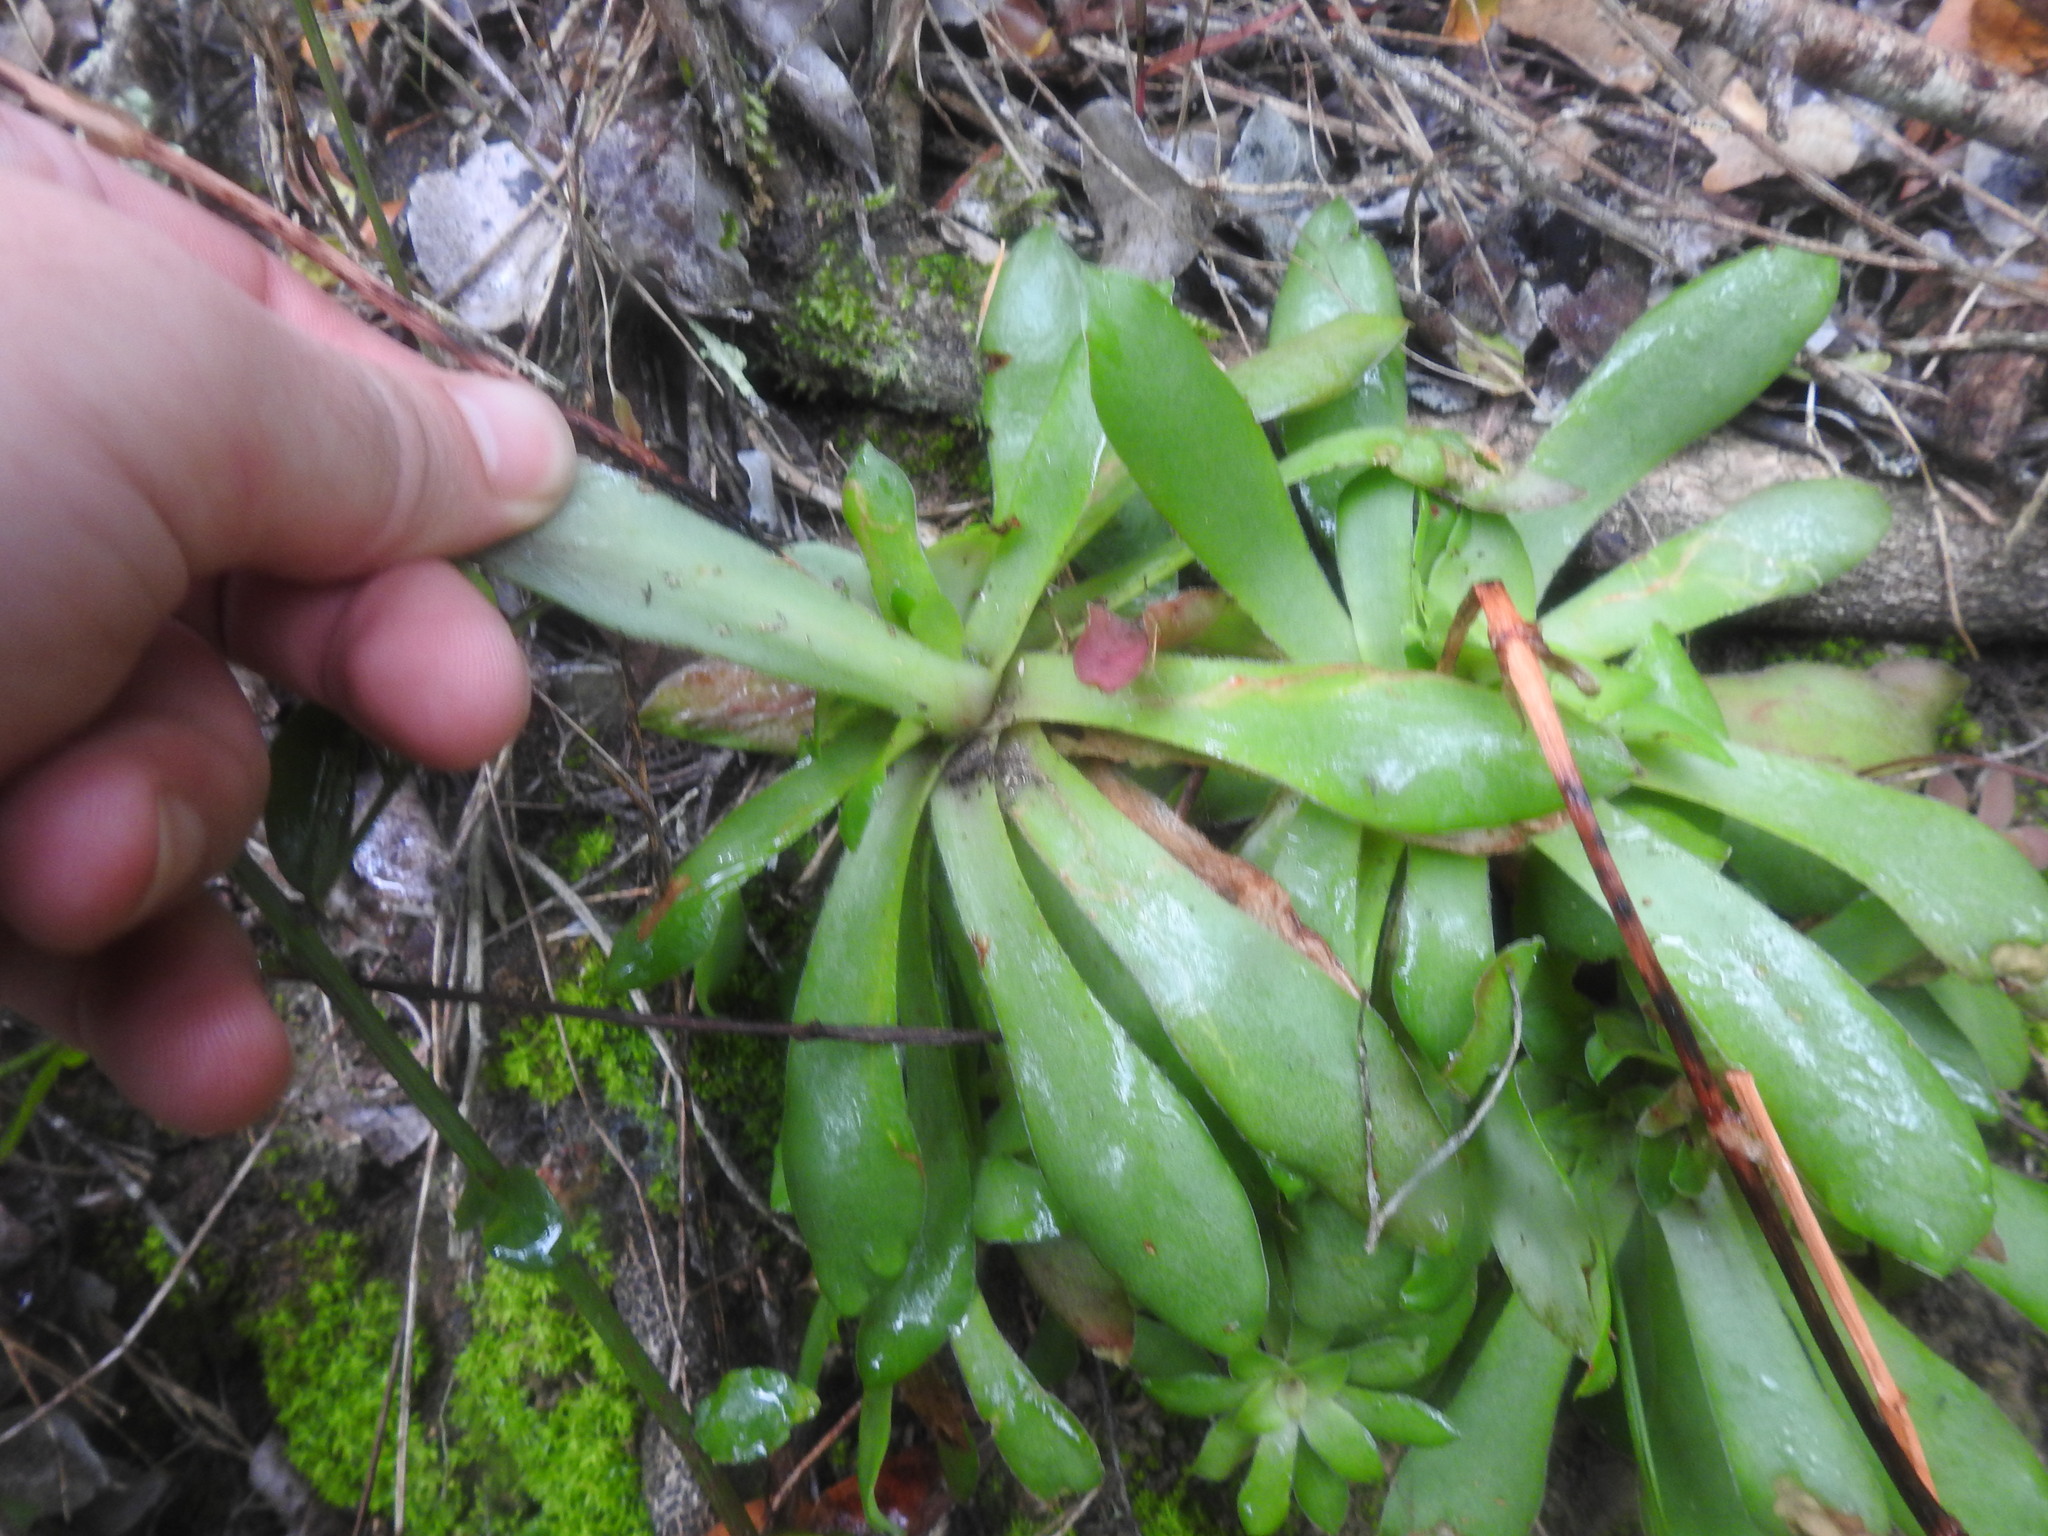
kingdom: Plantae
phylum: Tracheophyta
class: Magnoliopsida
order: Saxifragales
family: Crassulaceae
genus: Crassula
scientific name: Crassula orbicularis
